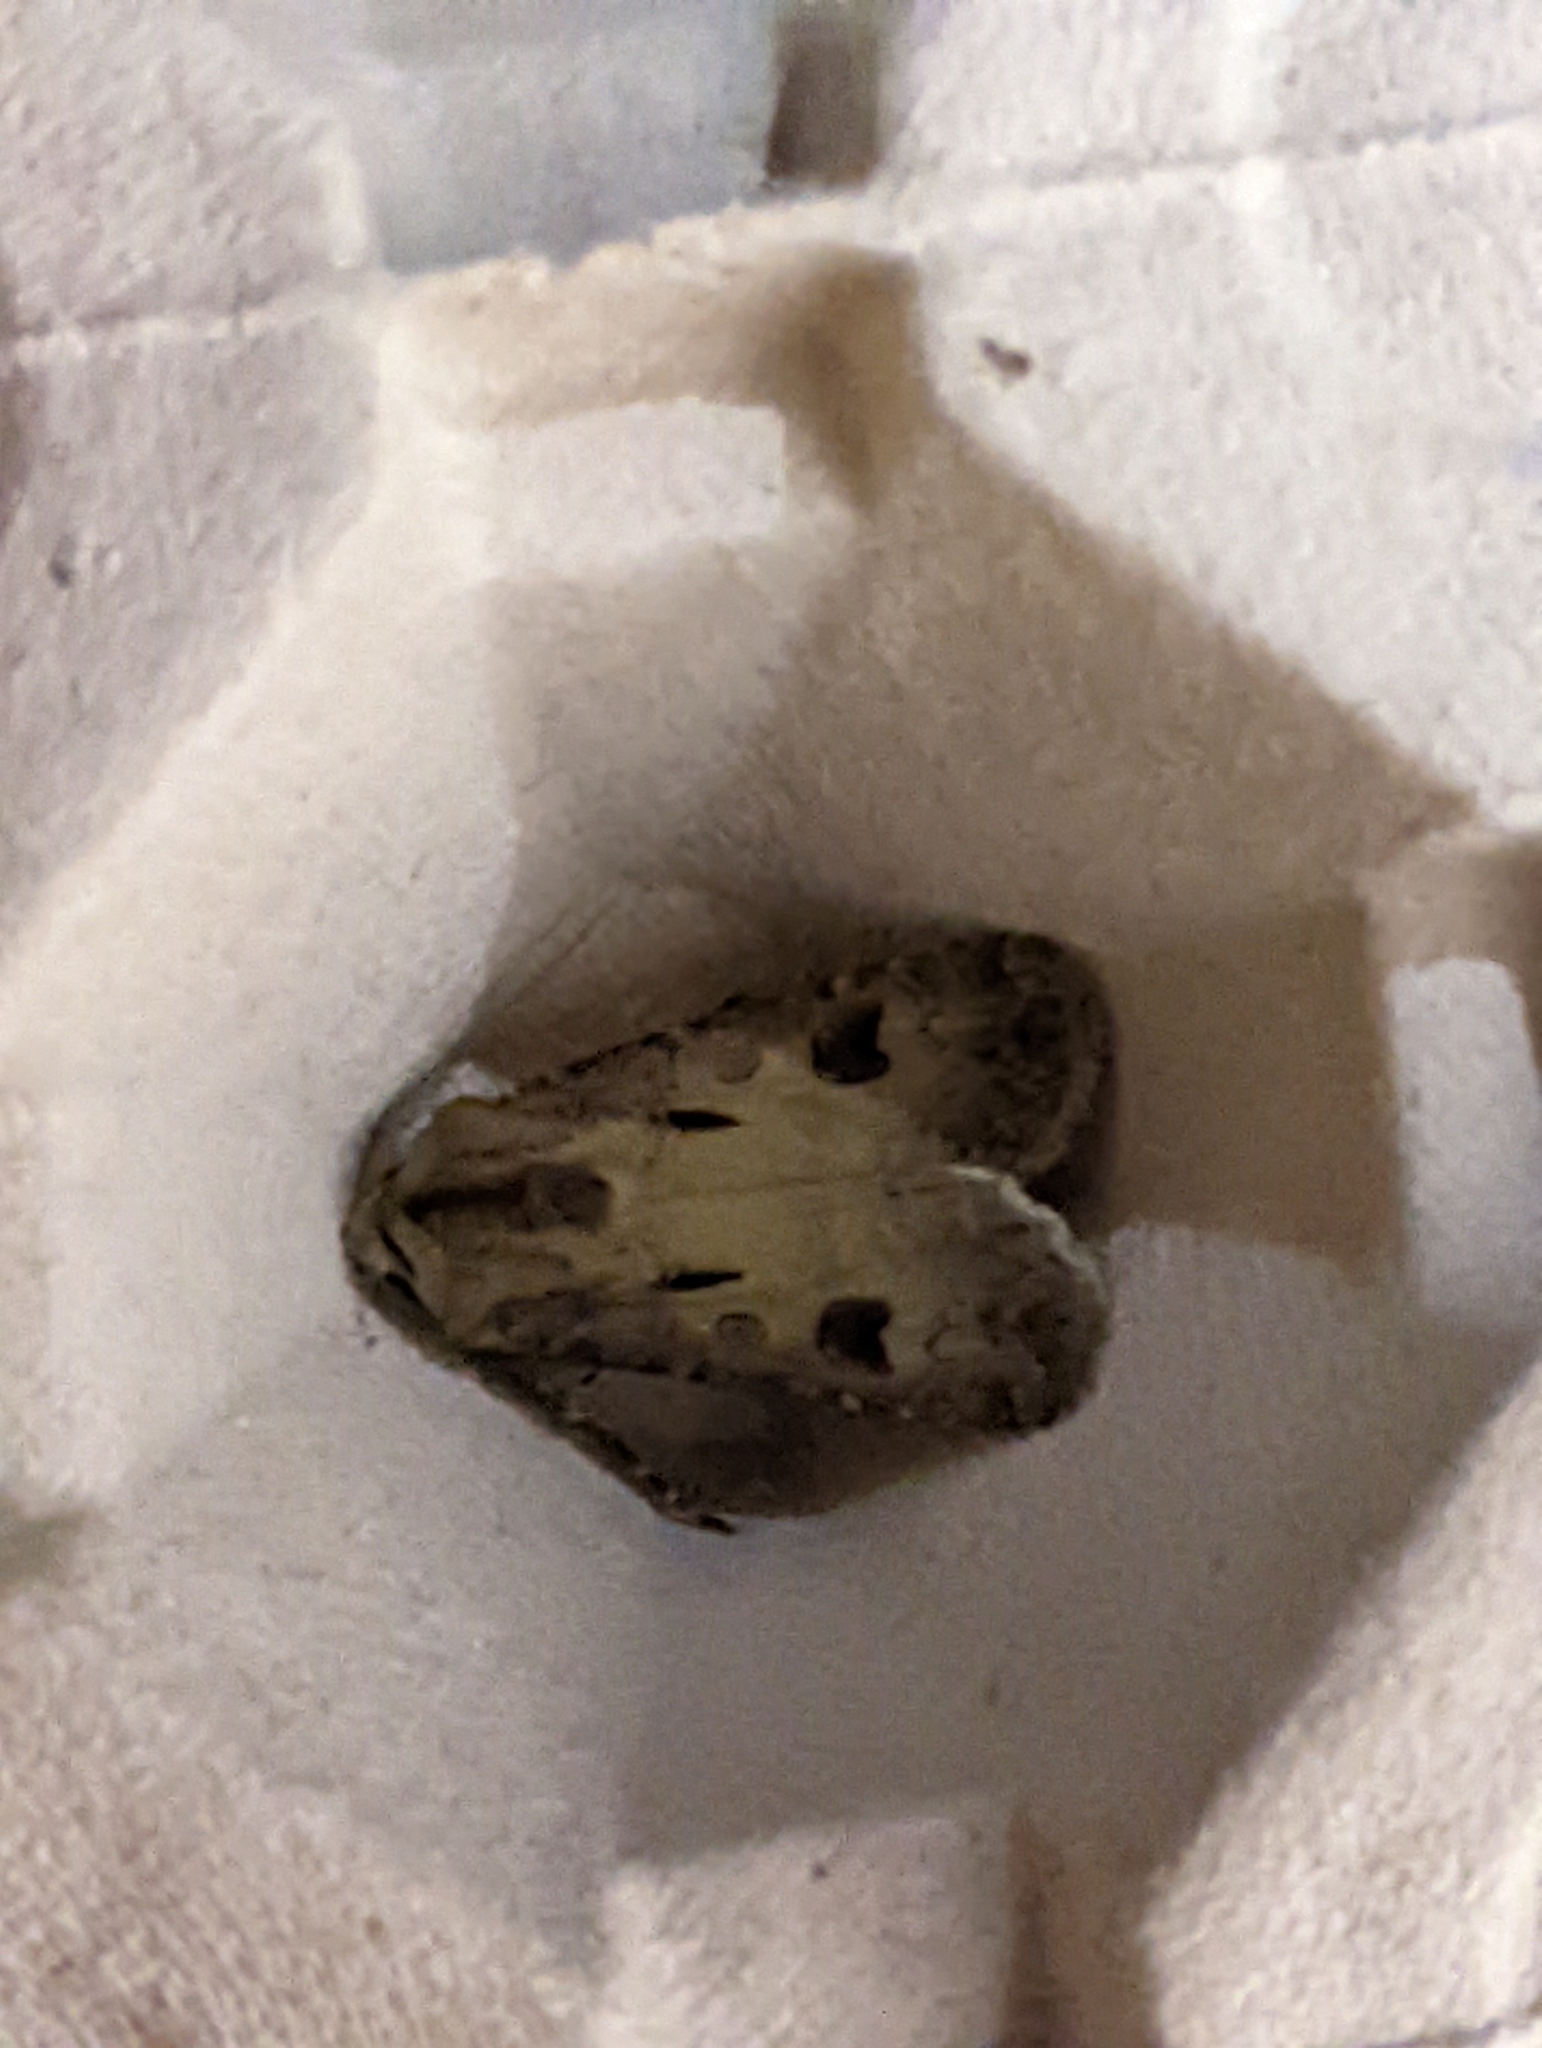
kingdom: Animalia
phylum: Arthropoda
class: Insecta
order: Lepidoptera
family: Noctuidae
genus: Agrotis
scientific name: Agrotis exclamationis
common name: Heart and dart
